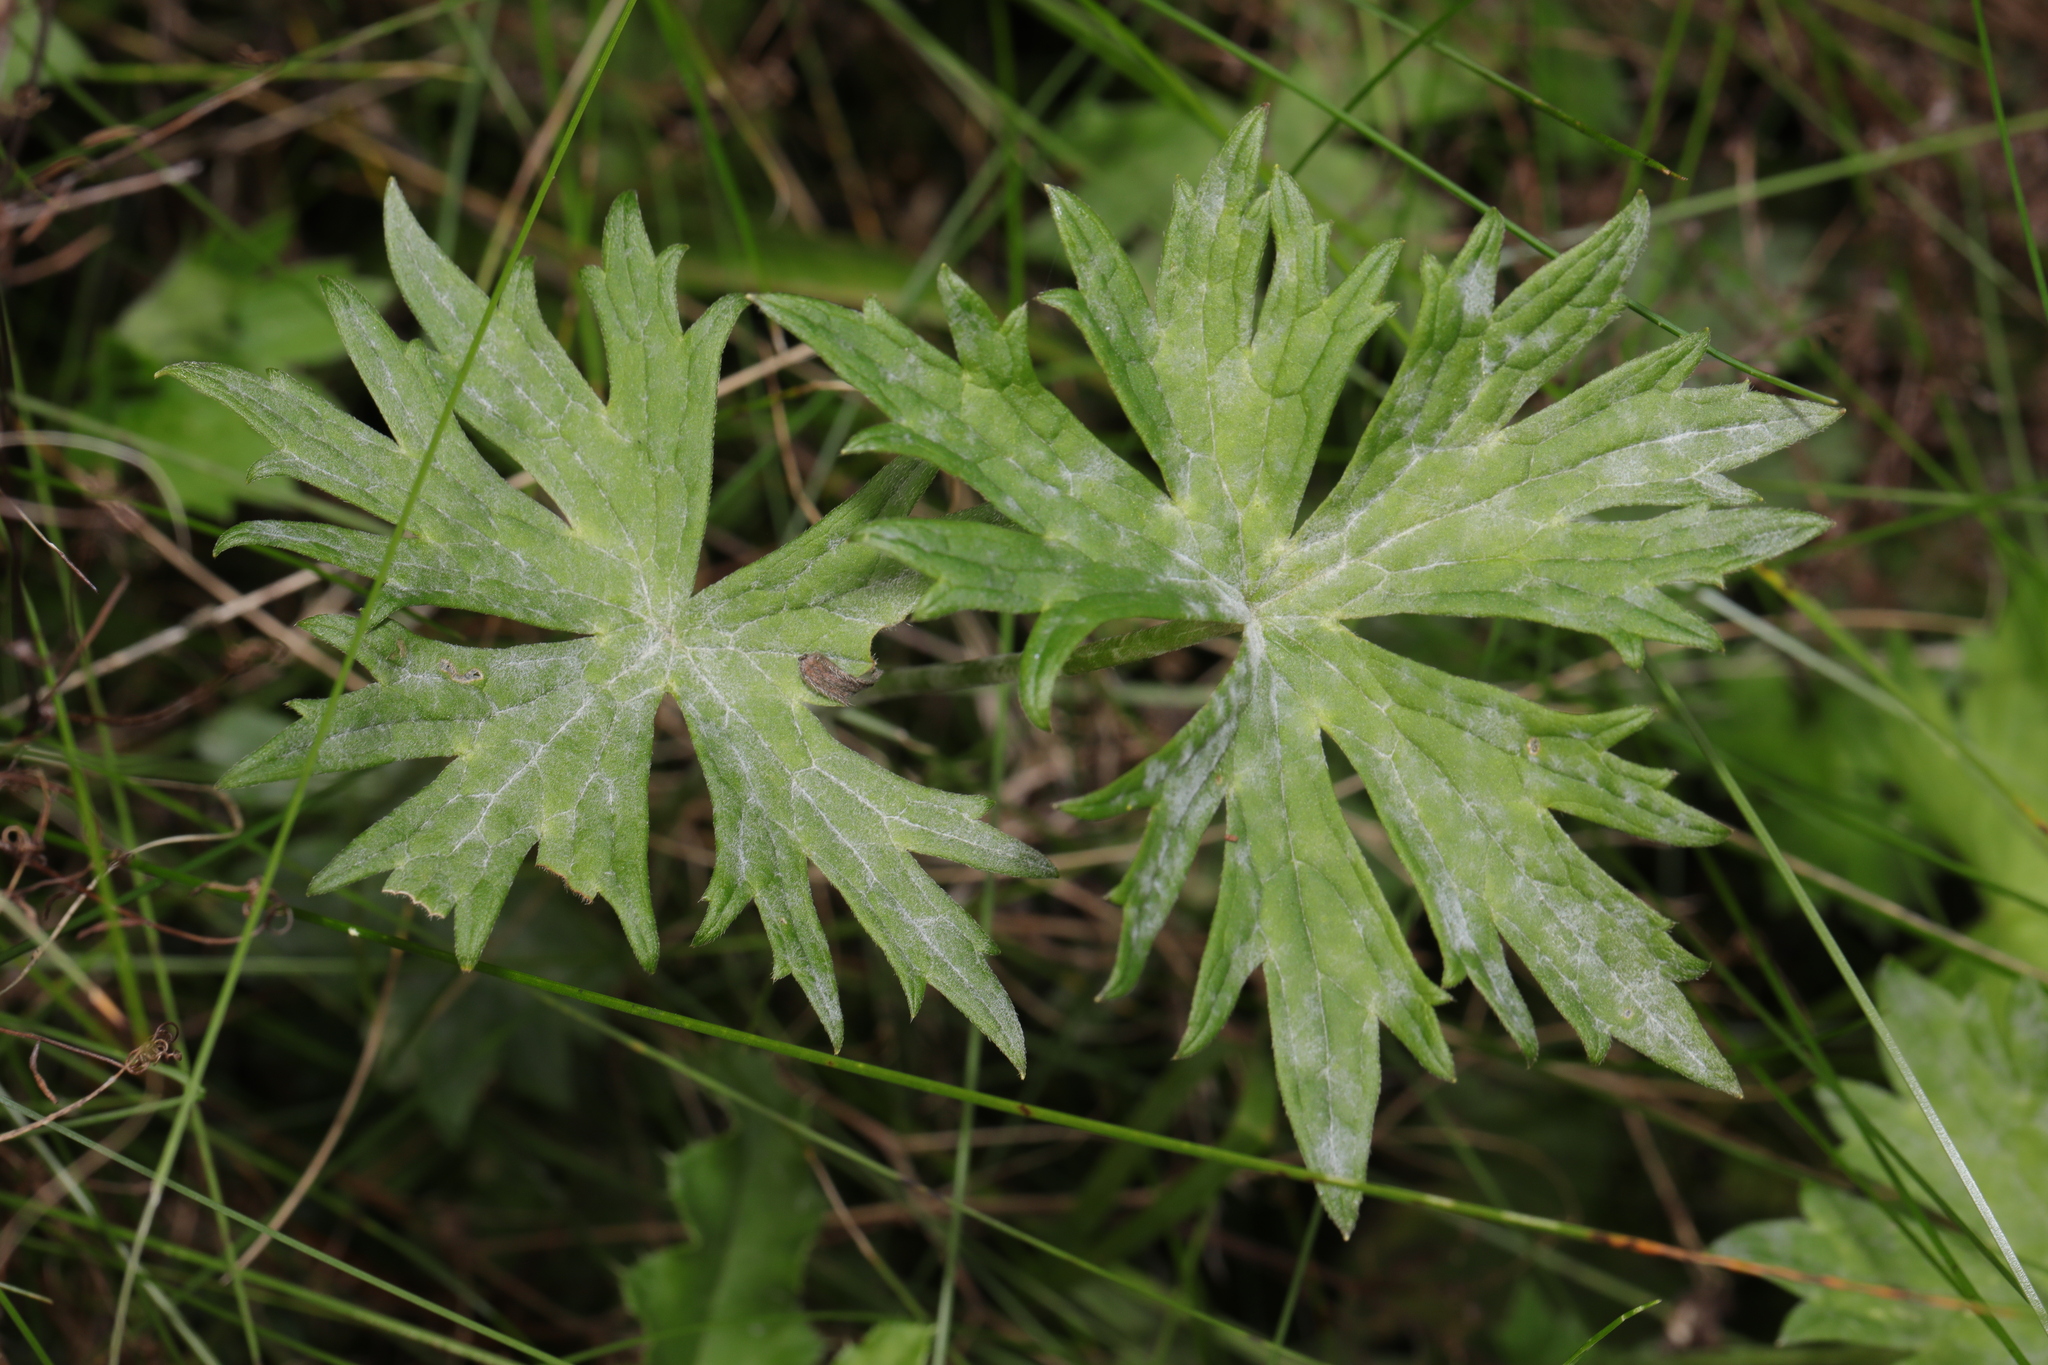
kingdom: Plantae
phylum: Tracheophyta
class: Magnoliopsida
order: Ranunculales
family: Ranunculaceae
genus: Ranunculus
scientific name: Ranunculus acris
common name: Meadow buttercup
